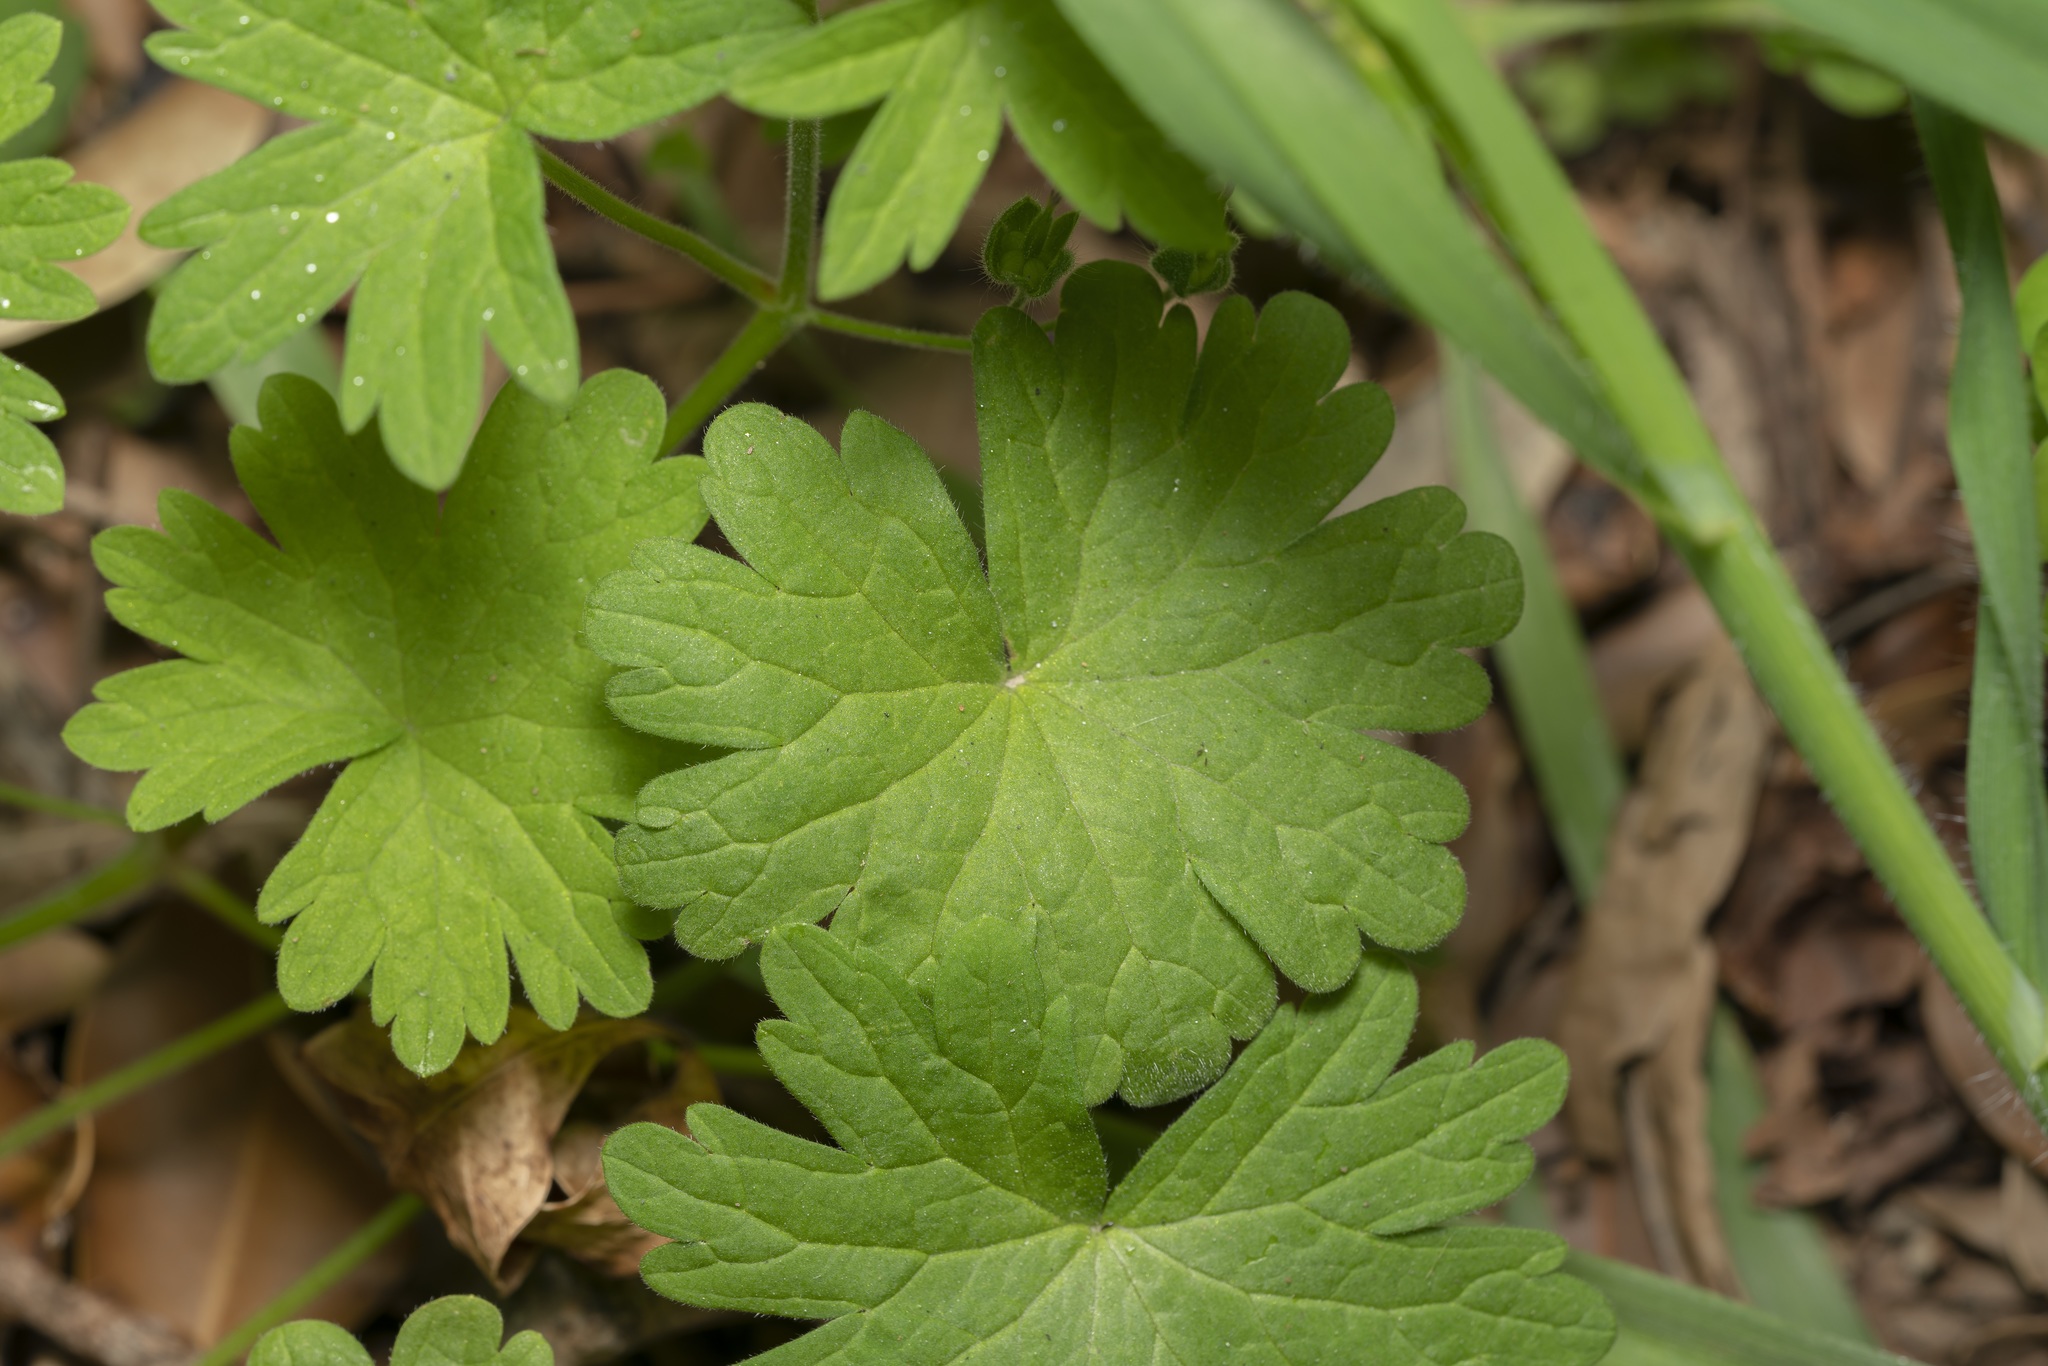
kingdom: Plantae
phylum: Tracheophyta
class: Magnoliopsida
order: Geraniales
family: Geraniaceae
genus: Geranium
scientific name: Geranium molle
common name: Dove's-foot crane's-bill
